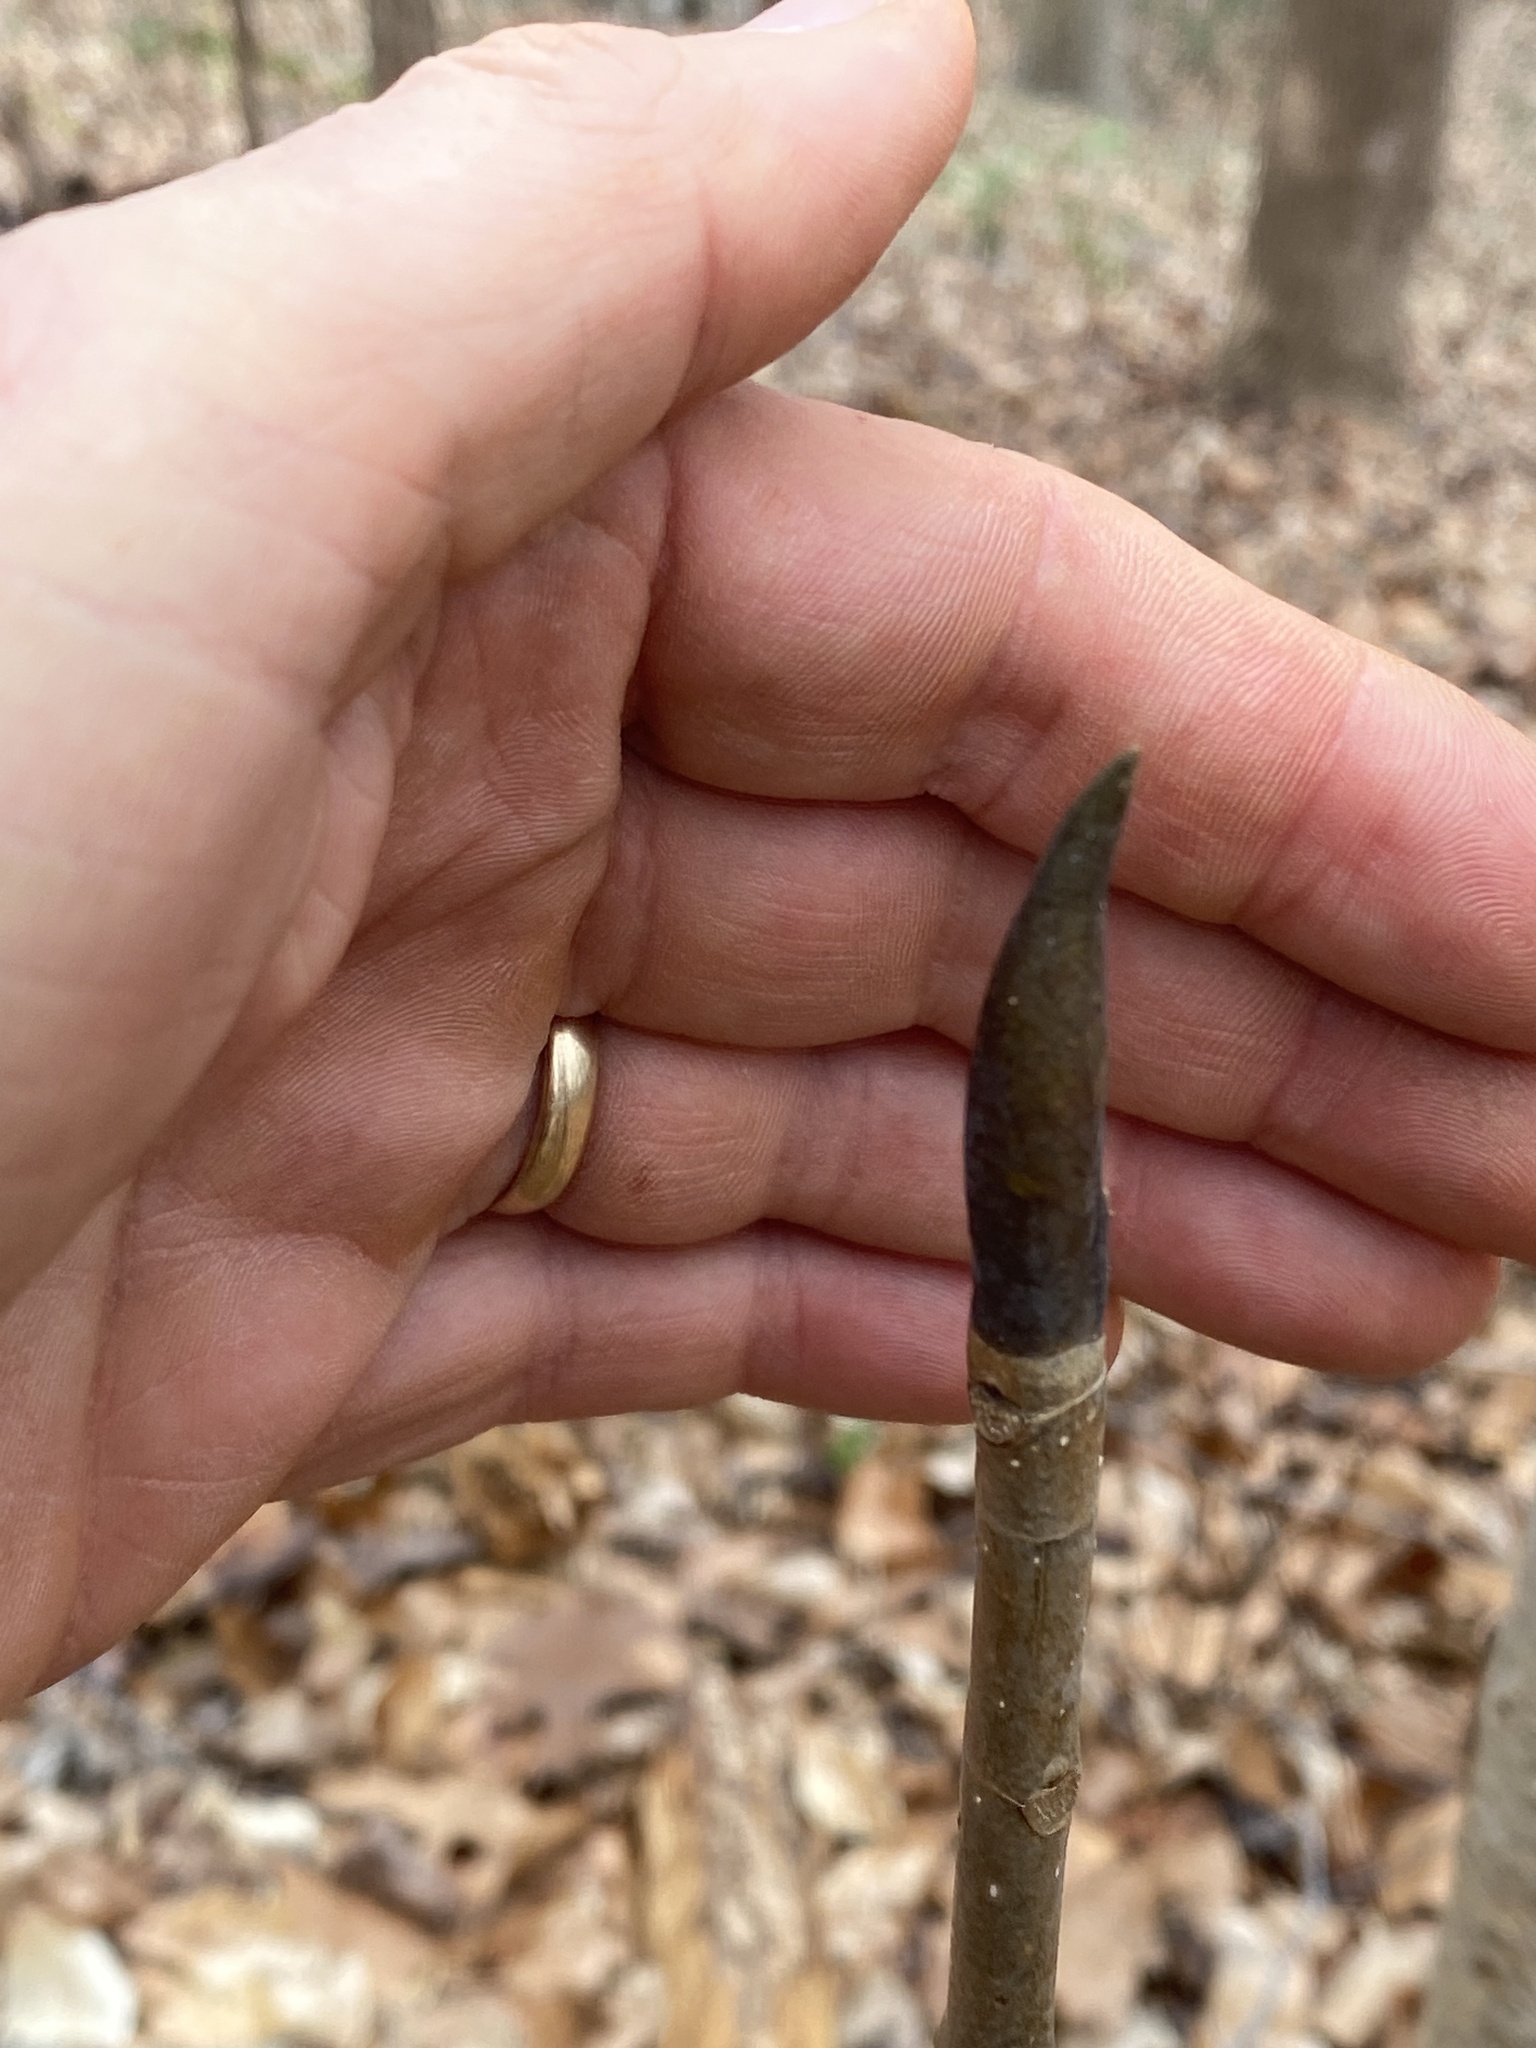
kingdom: Plantae
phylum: Tracheophyta
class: Magnoliopsida
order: Magnoliales
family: Magnoliaceae
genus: Magnolia
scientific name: Magnolia tripetala
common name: Umbrella magnolia
